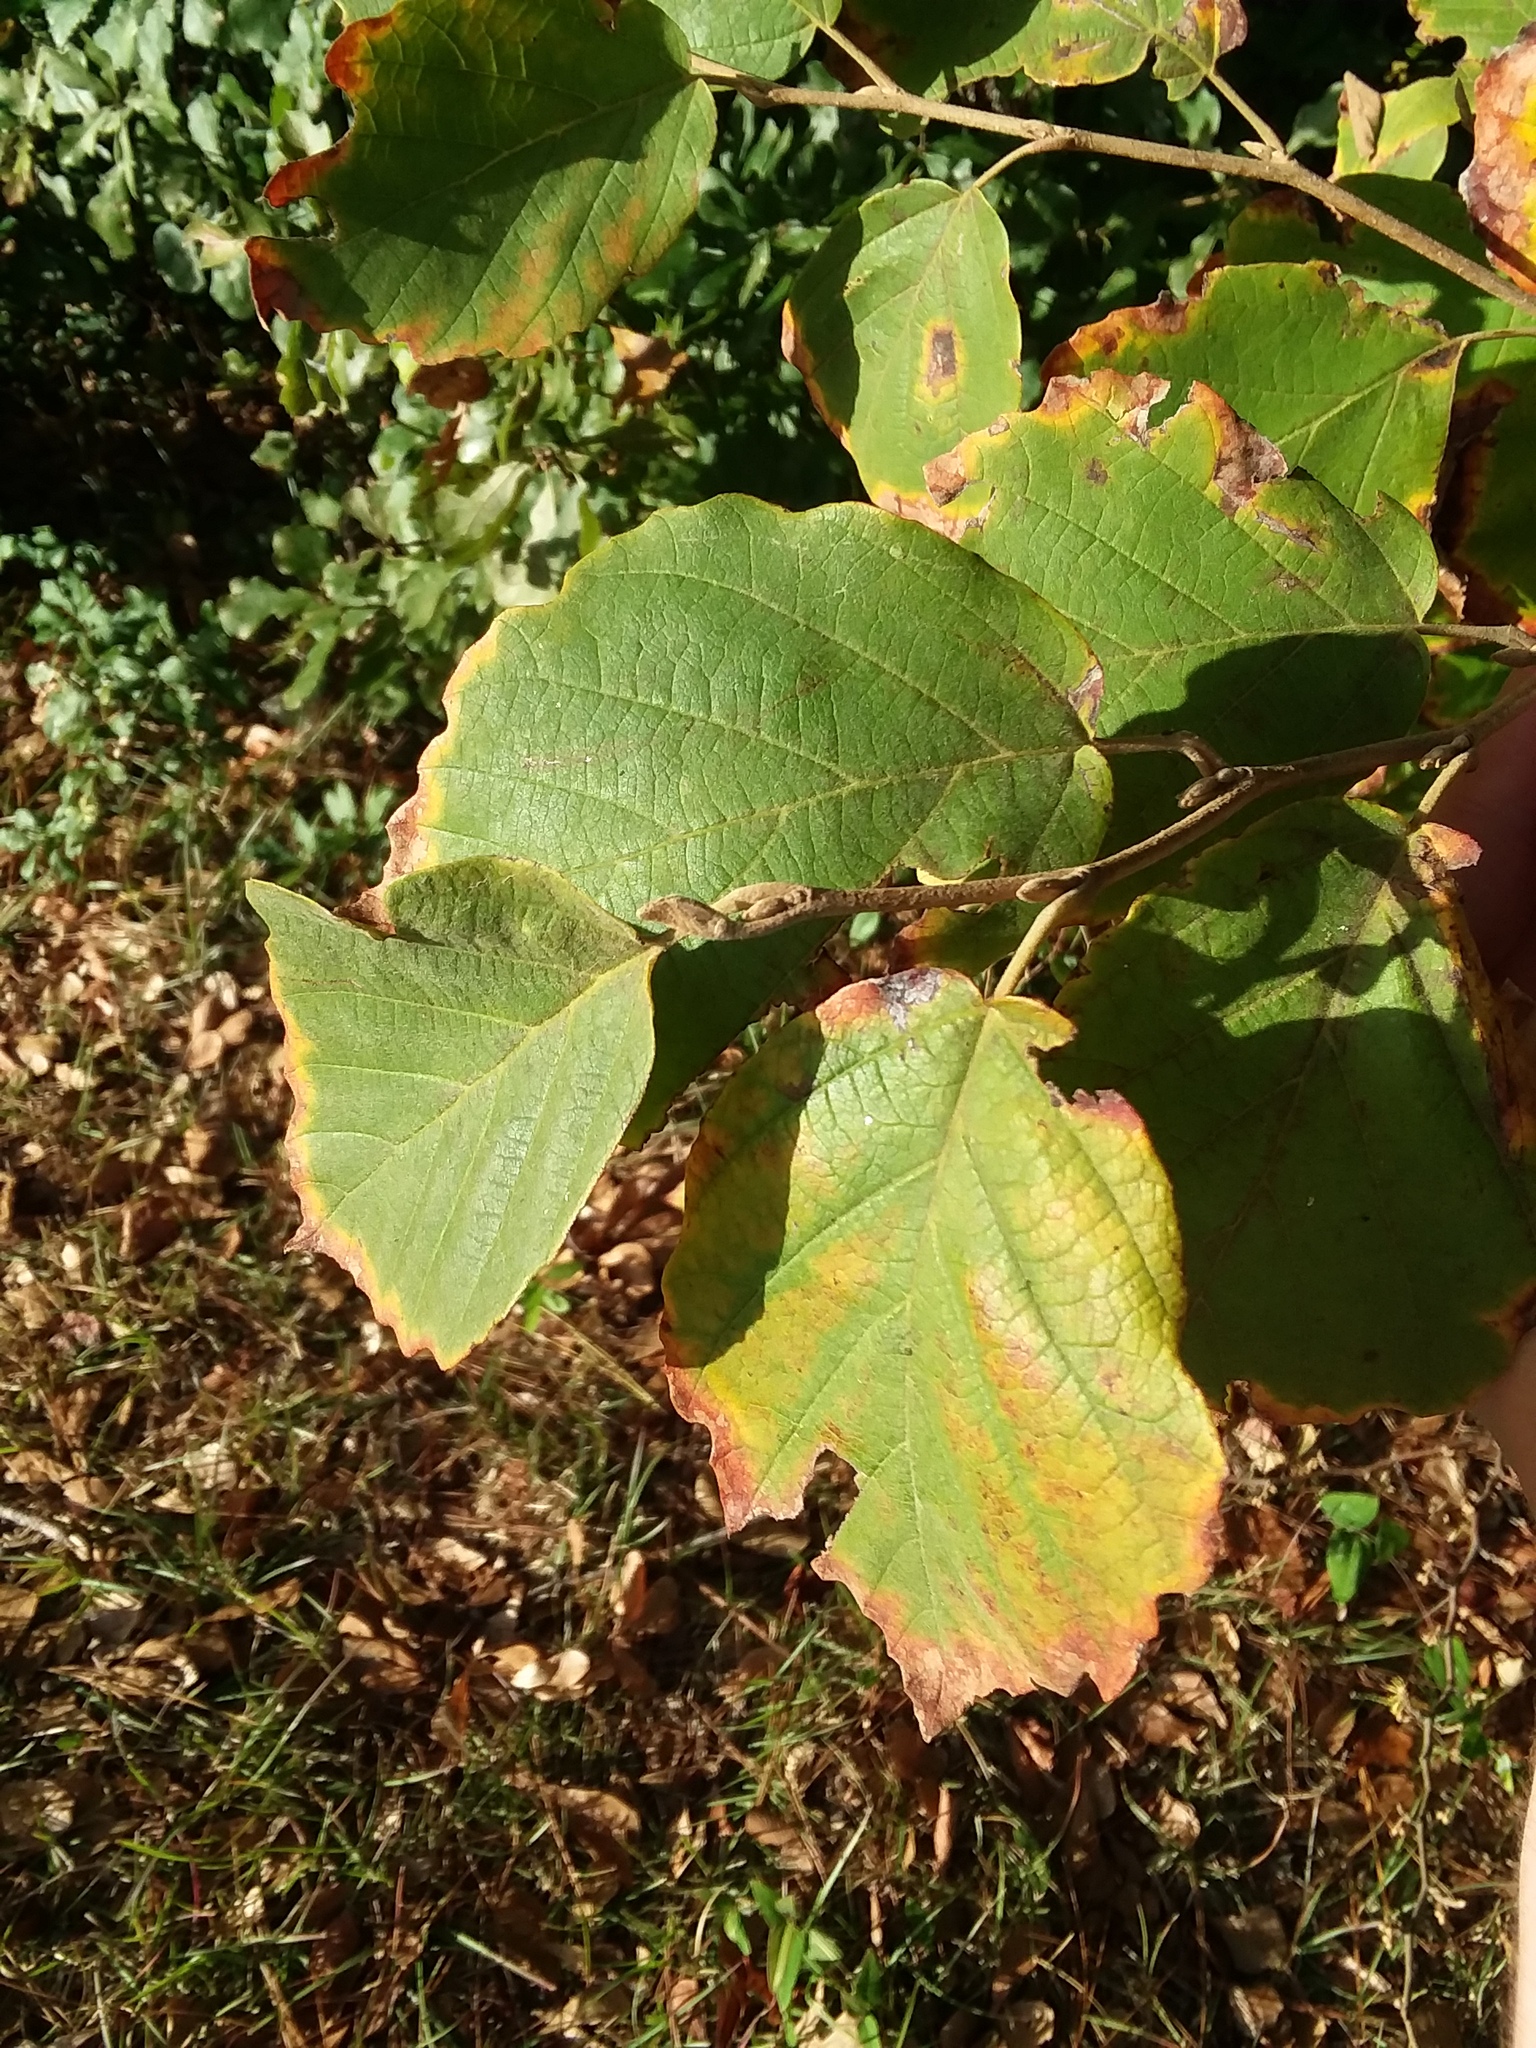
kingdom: Plantae
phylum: Tracheophyta
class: Magnoliopsida
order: Saxifragales
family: Hamamelidaceae
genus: Hamamelis
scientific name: Hamamelis virginiana
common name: Witch-hazel
